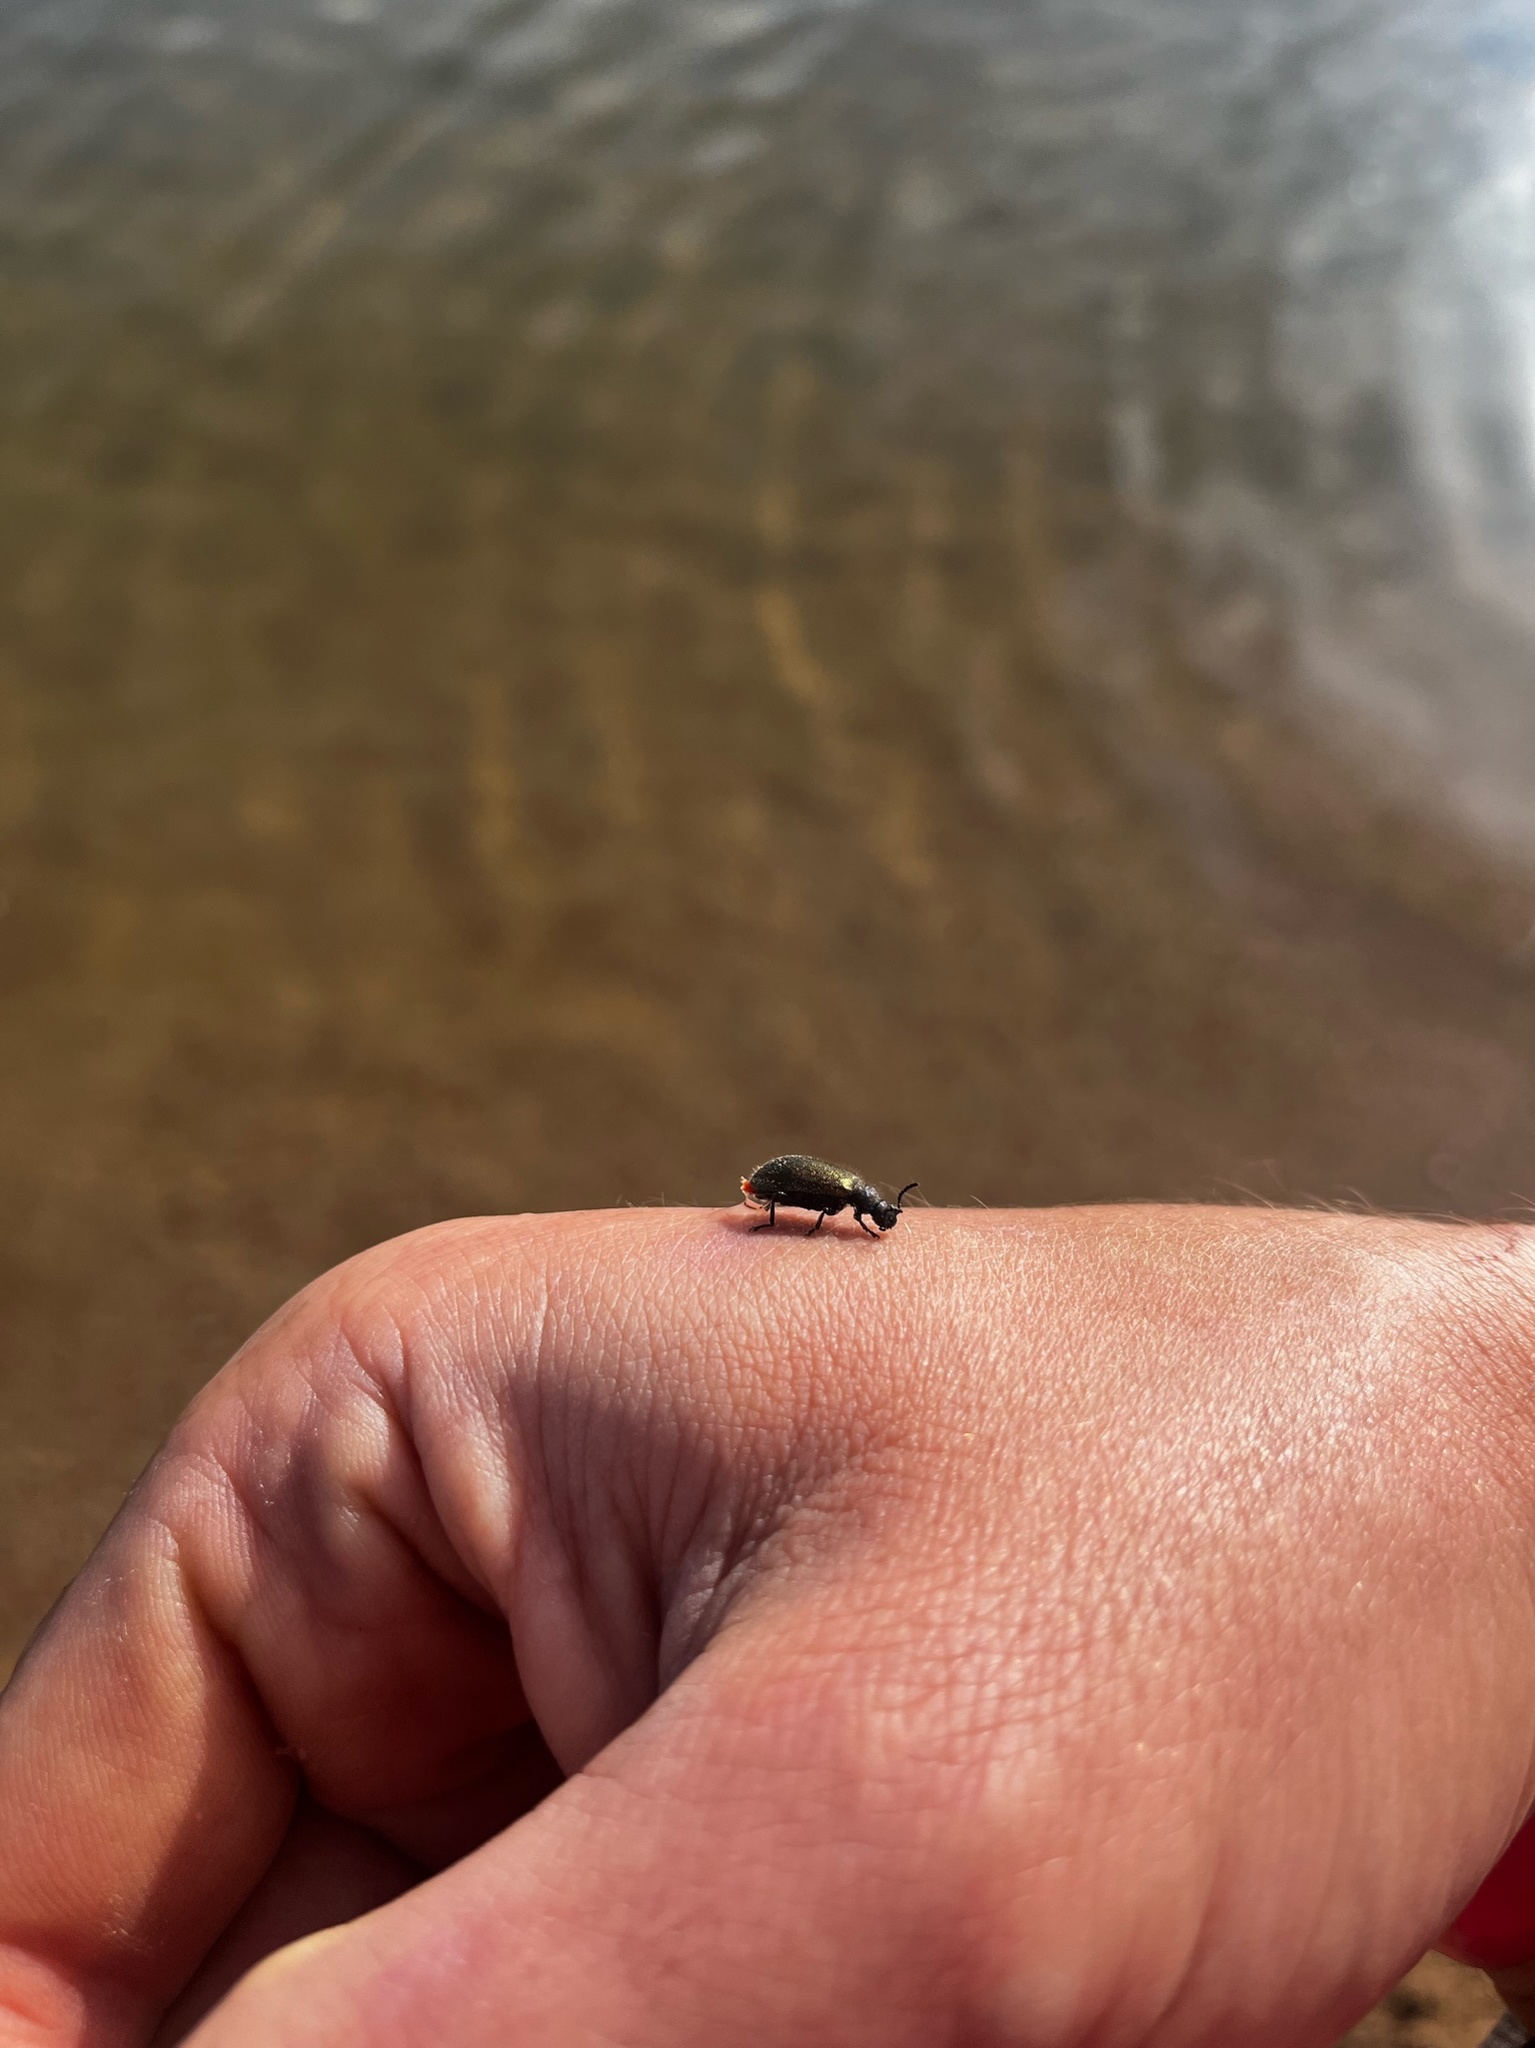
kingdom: Animalia
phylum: Arthropoda
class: Insecta
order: Coleoptera
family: Tenebrionidae
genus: Lagria
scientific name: Lagria villosa
